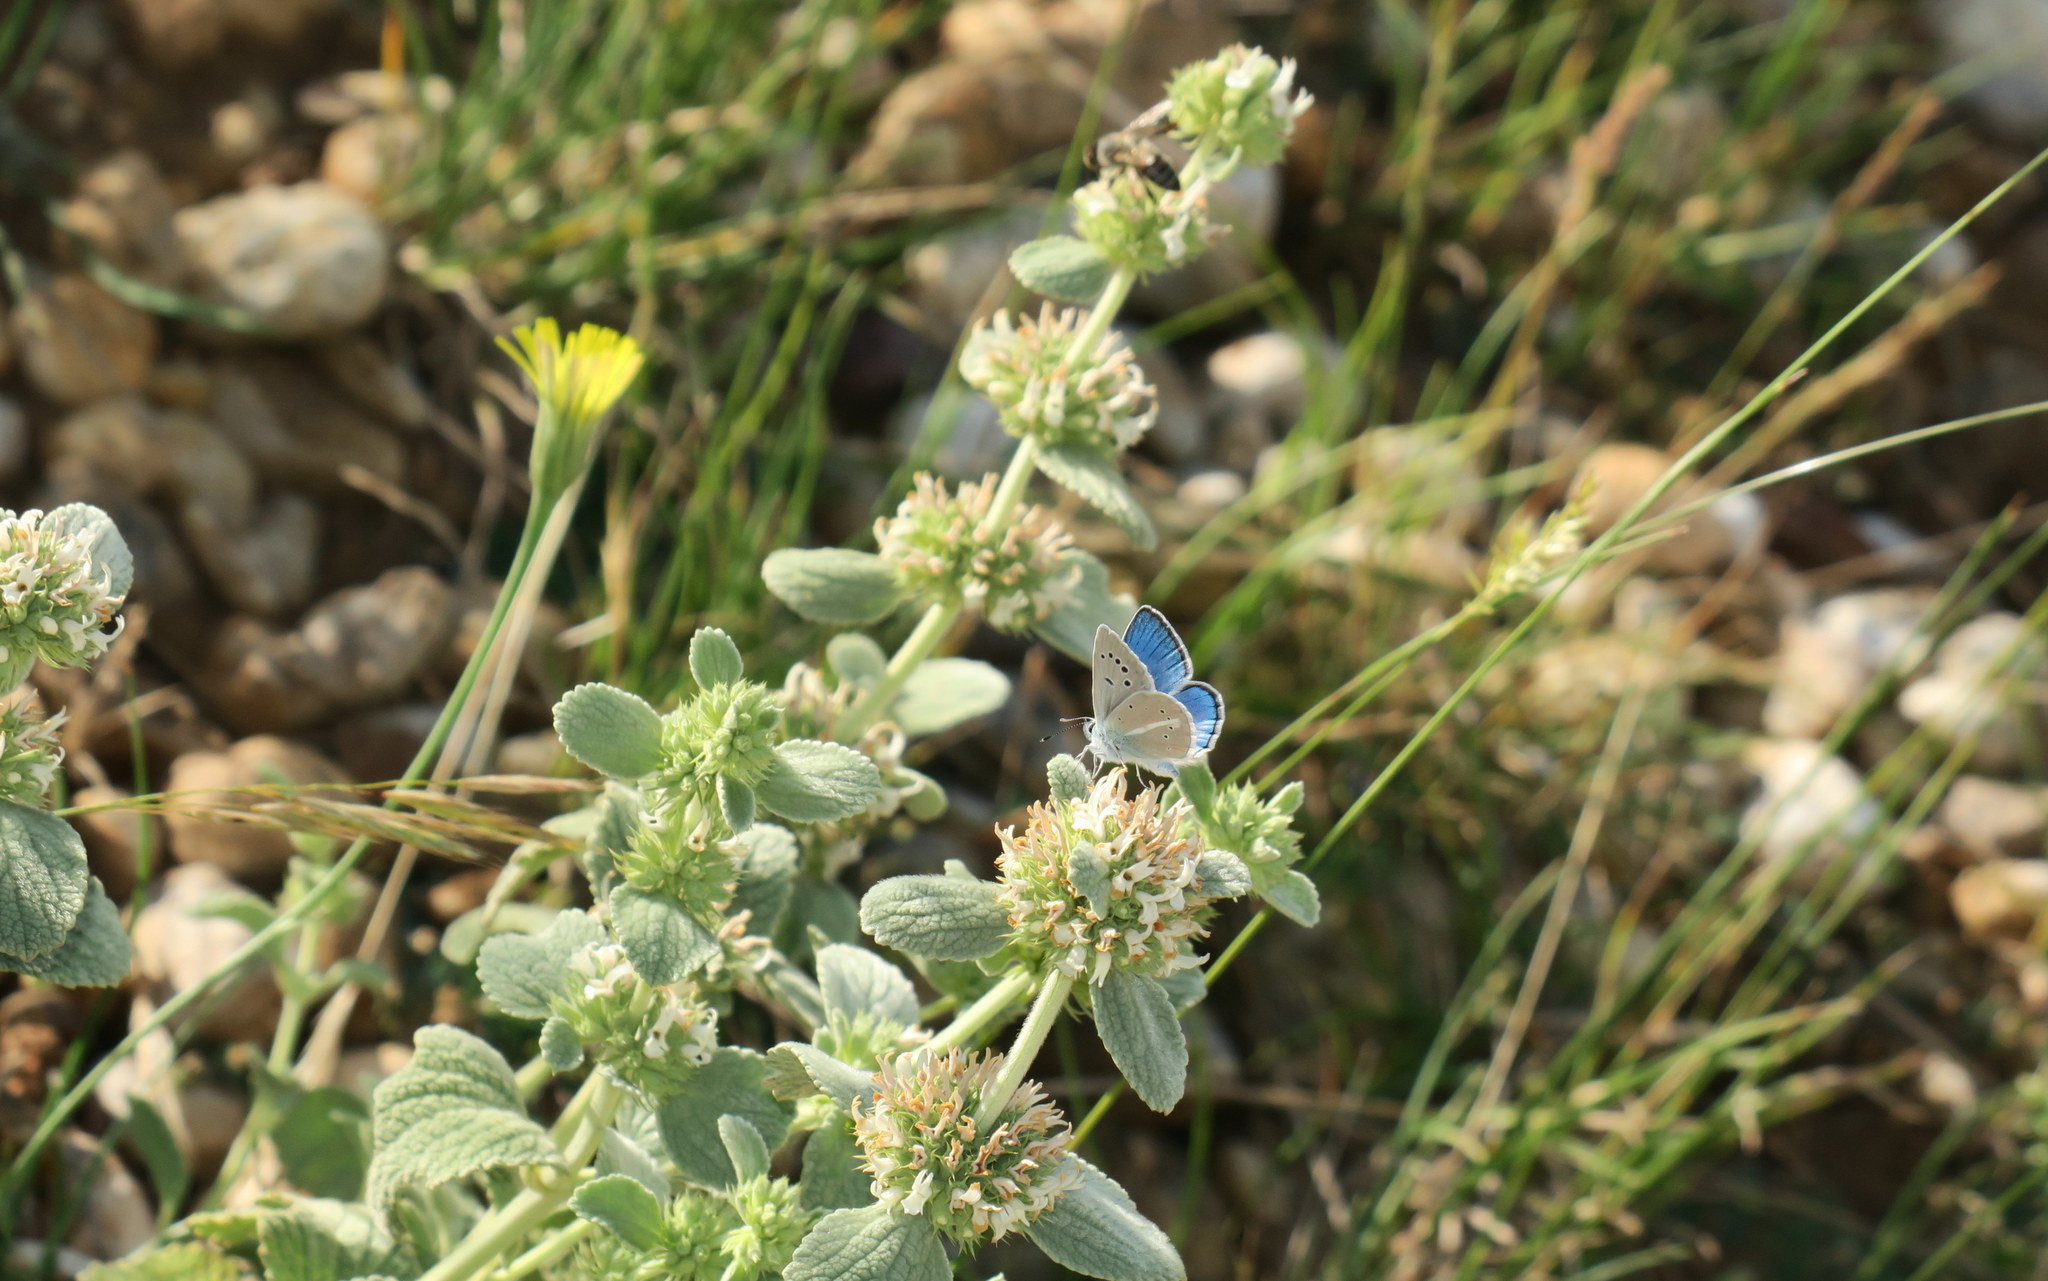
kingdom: Animalia
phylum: Arthropoda
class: Insecta
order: Lepidoptera
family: Lycaenidae
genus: Agrodiaetus
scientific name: Agrodiaetus iphigenia
